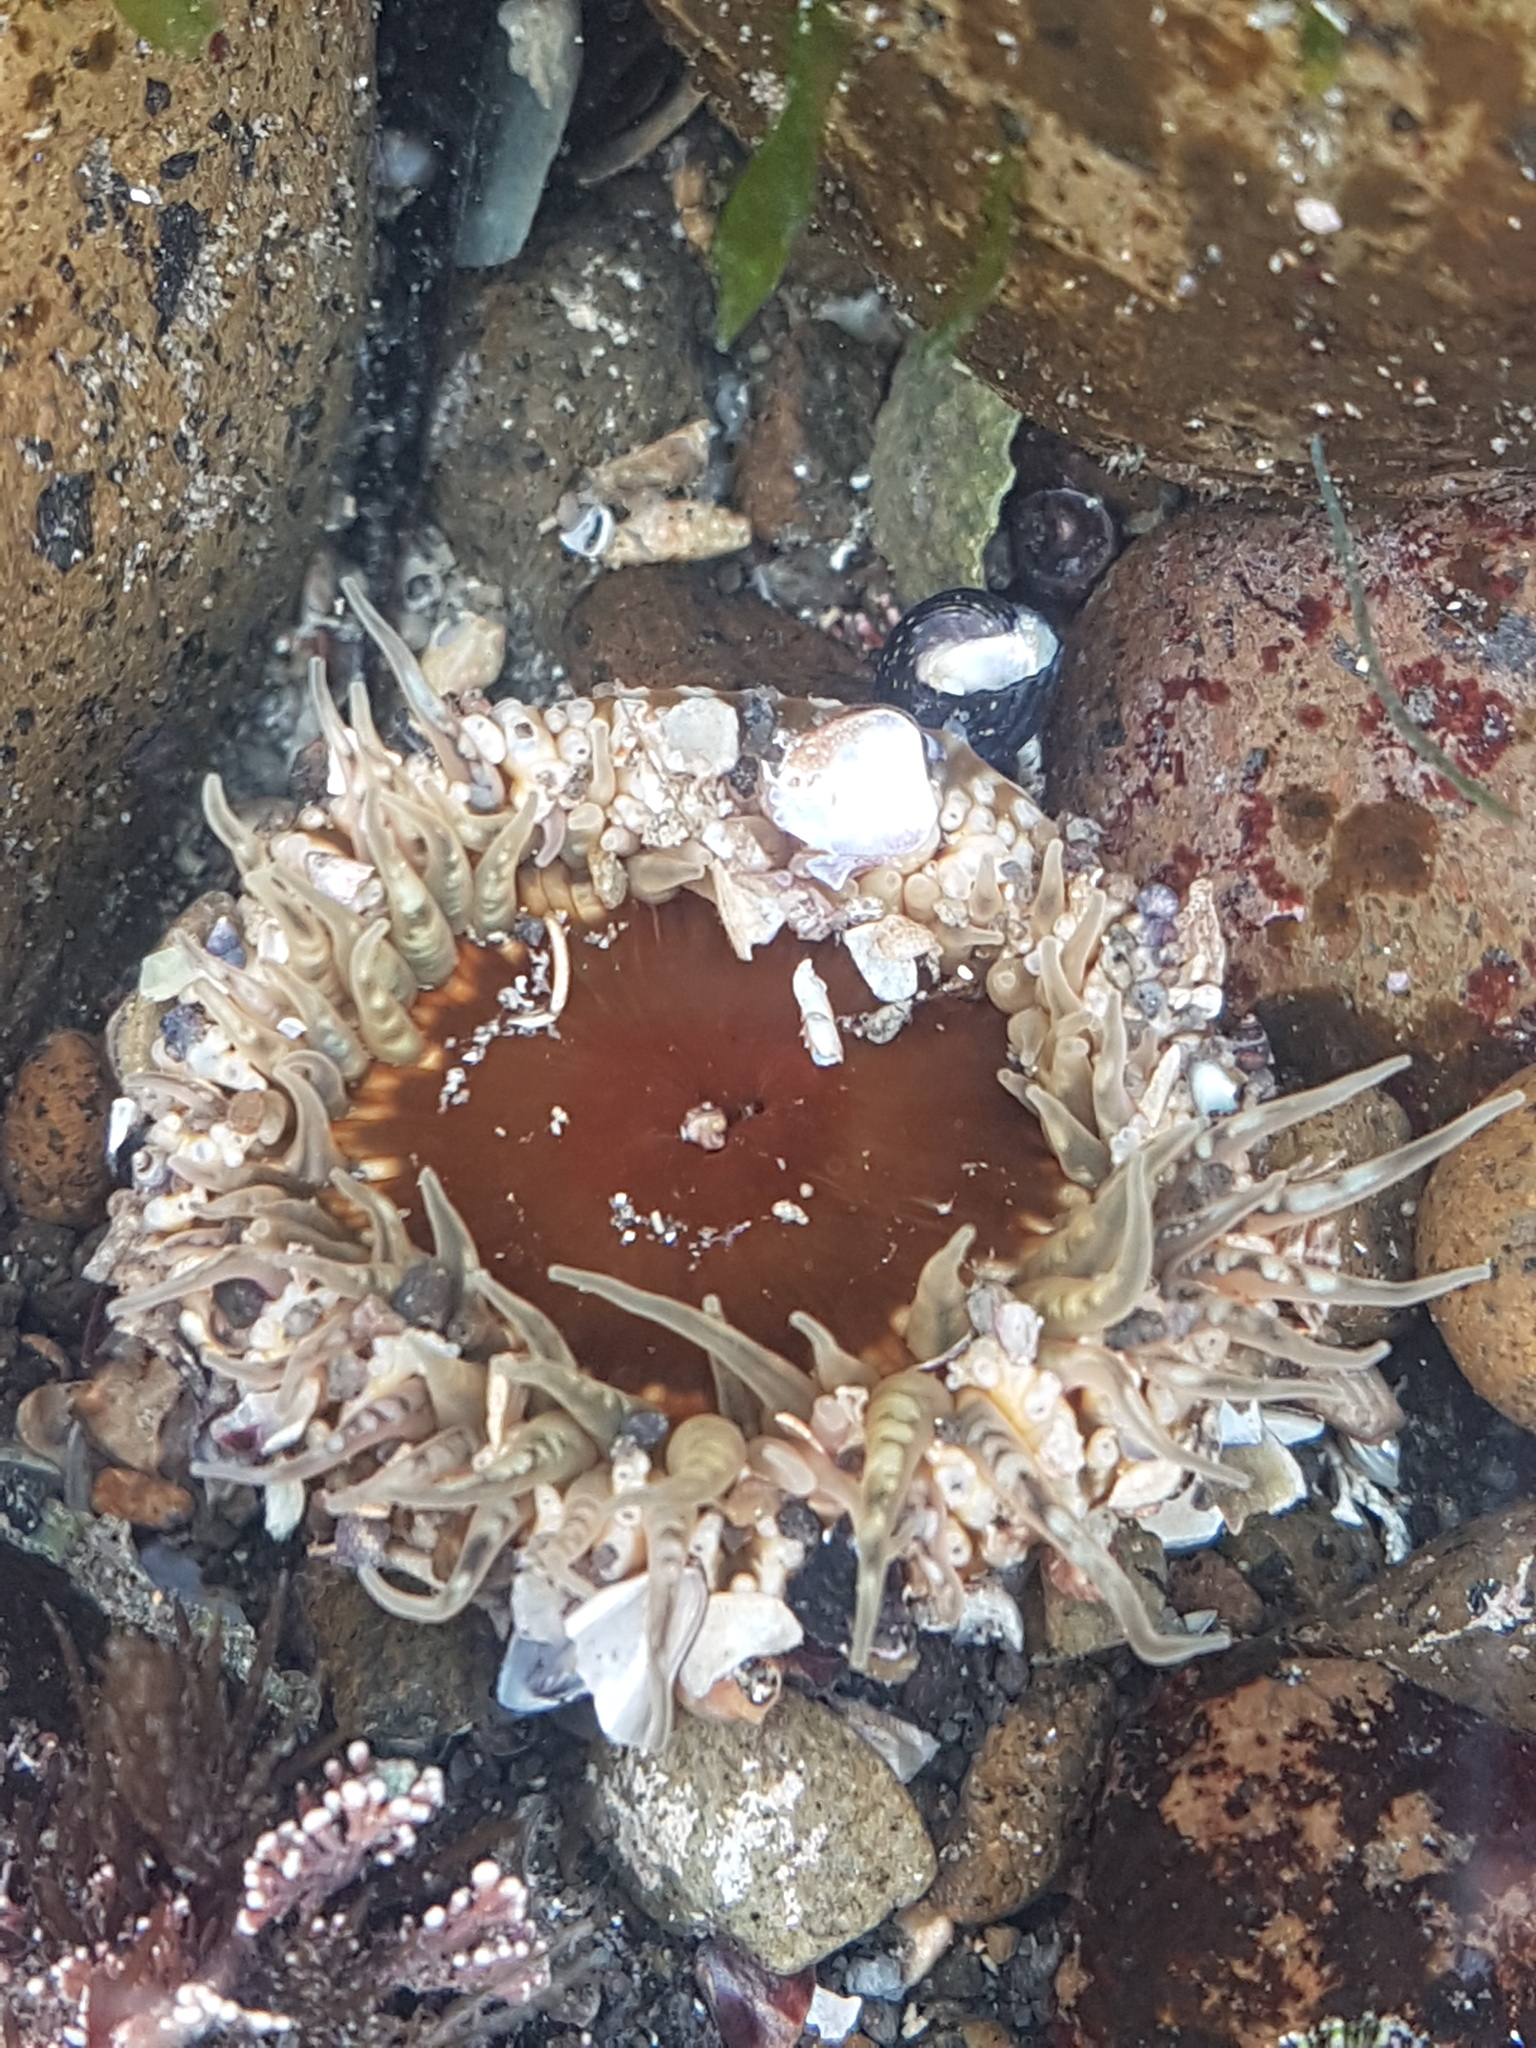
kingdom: Animalia
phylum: Cnidaria
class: Anthozoa
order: Actiniaria
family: Actiniidae
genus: Oulactis
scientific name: Oulactis muscosa
